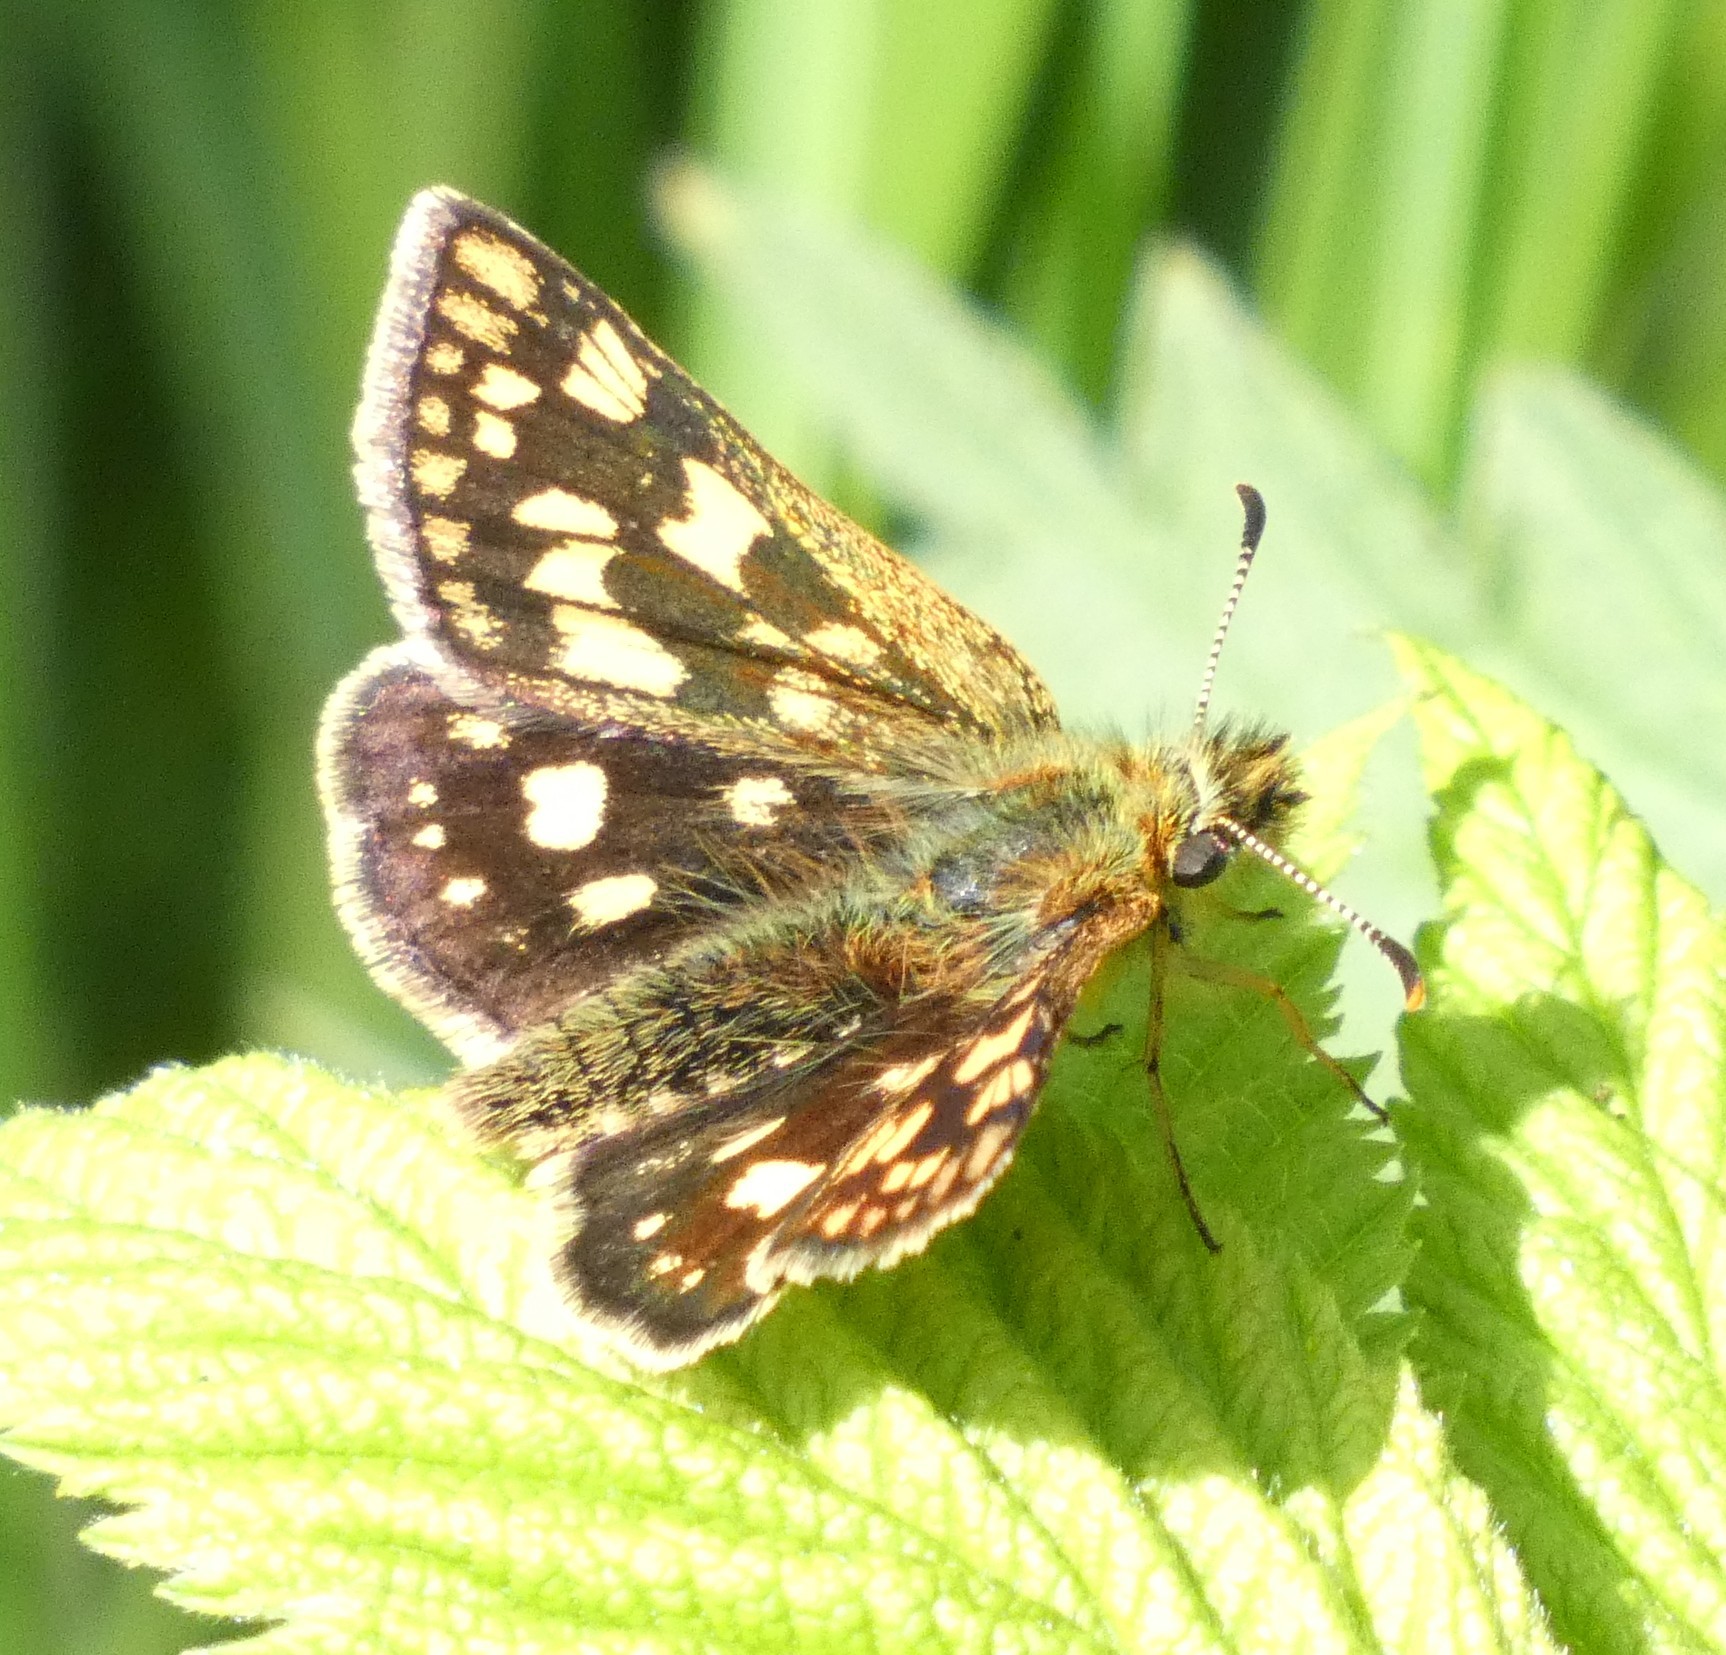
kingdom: Animalia
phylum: Arthropoda
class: Insecta
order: Lepidoptera
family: Hesperiidae
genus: Carterocephalus
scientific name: Carterocephalus palaemon
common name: Chequered skipper
